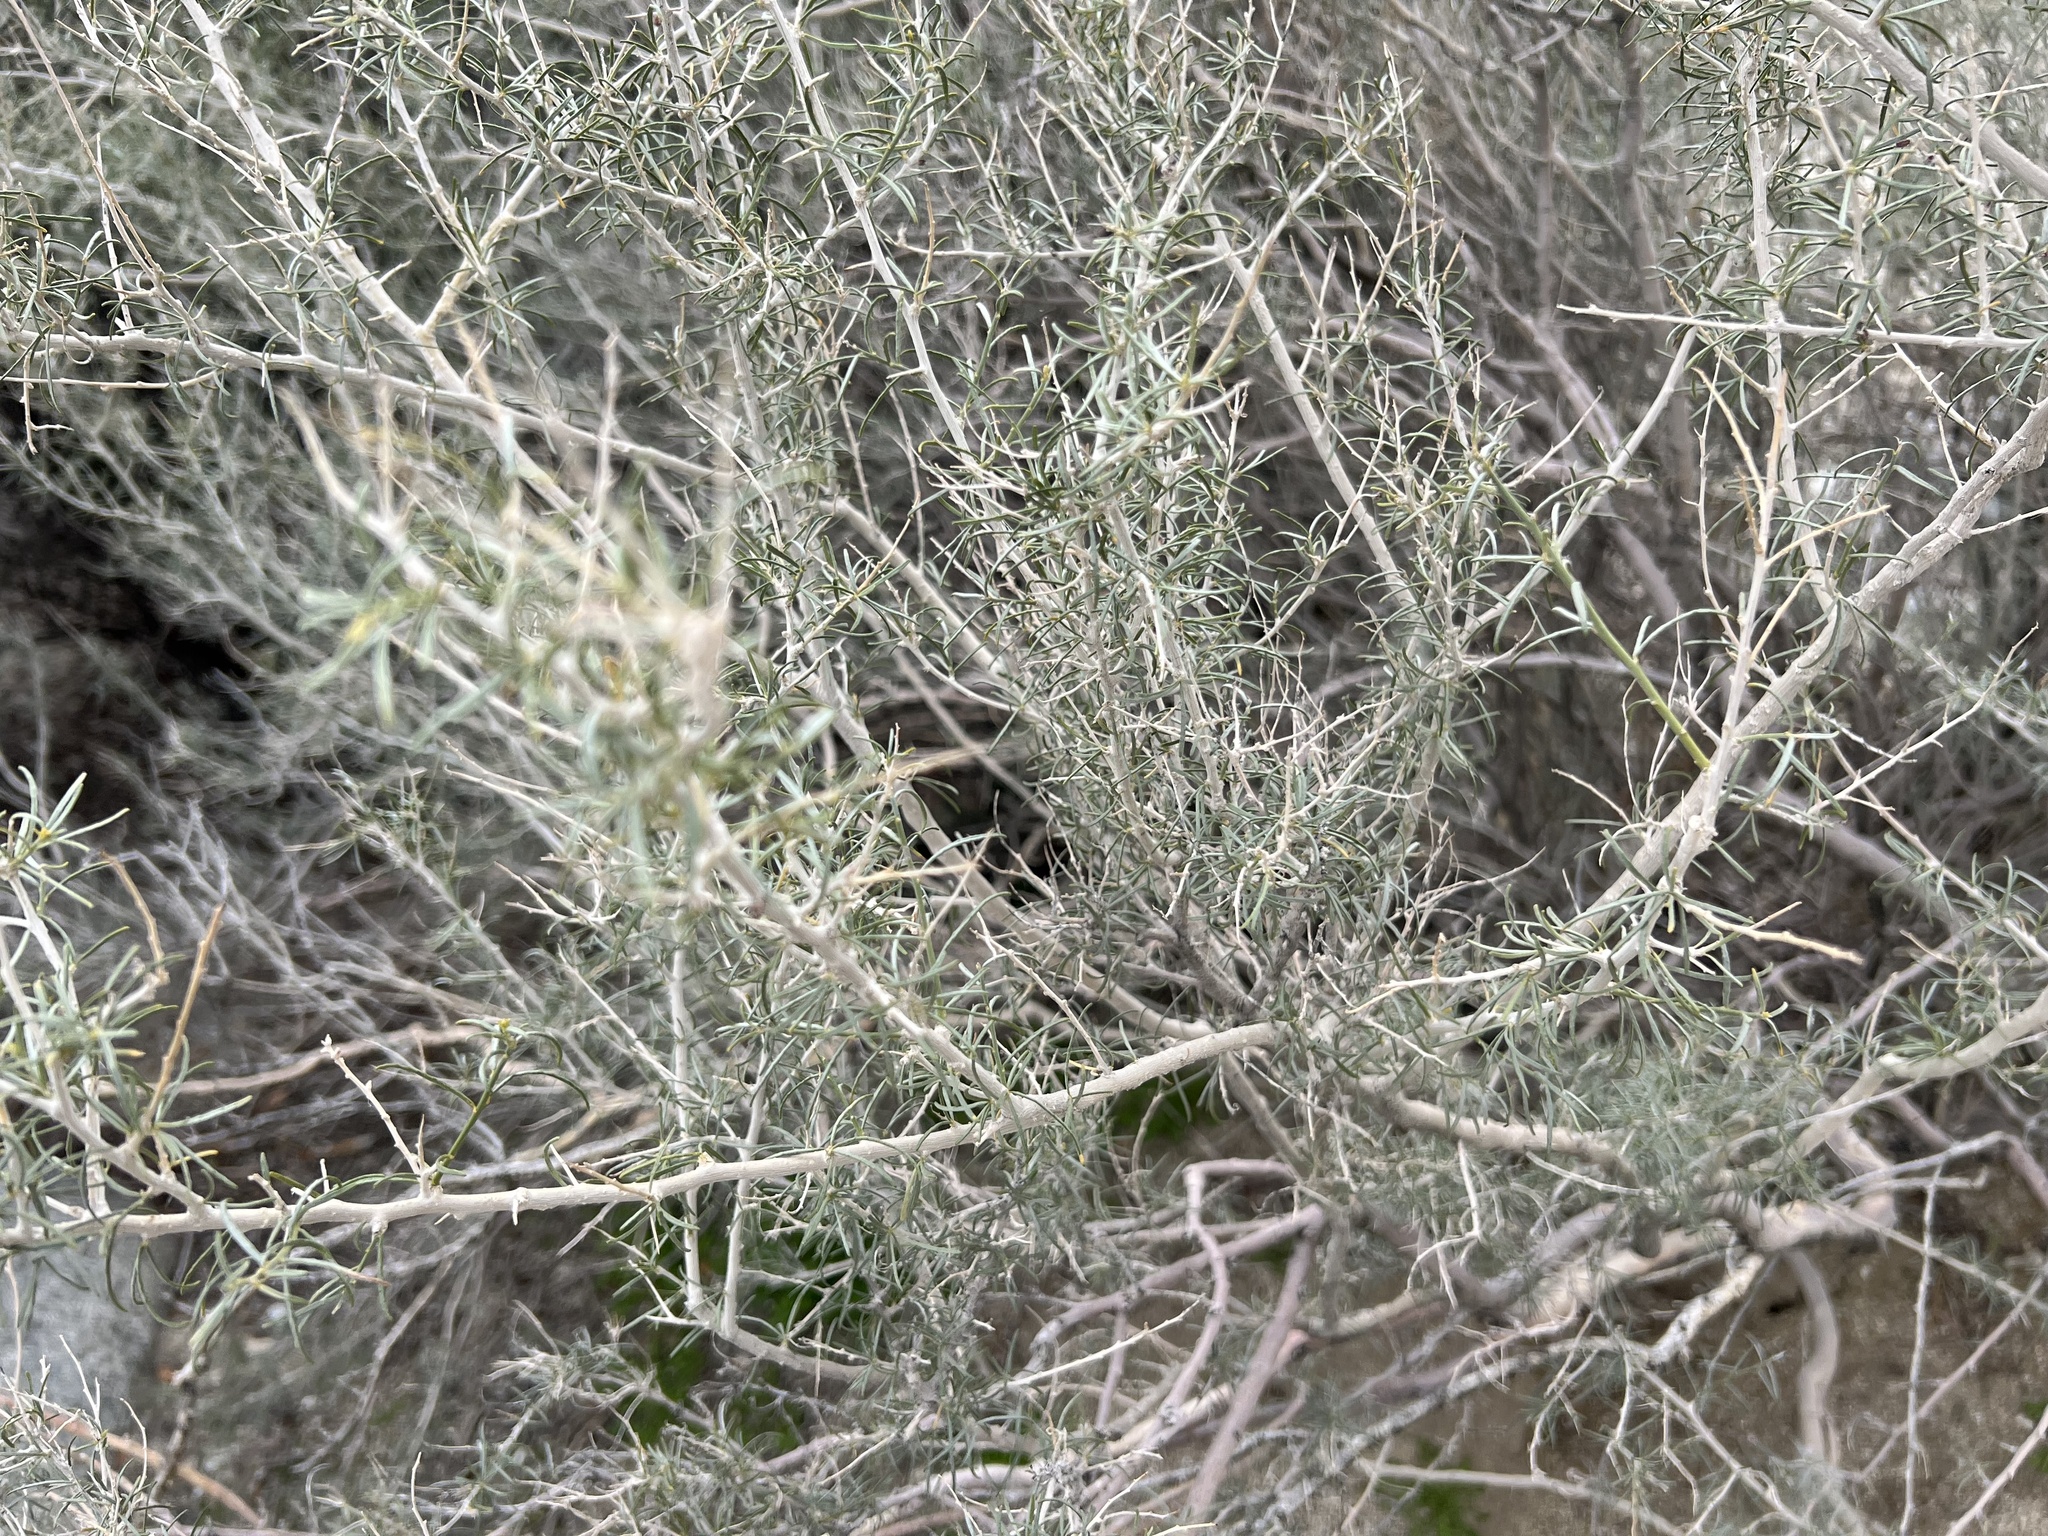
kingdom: Plantae
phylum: Tracheophyta
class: Magnoliopsida
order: Fabales
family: Fabaceae
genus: Psorothamnus
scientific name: Psorothamnus schottii
